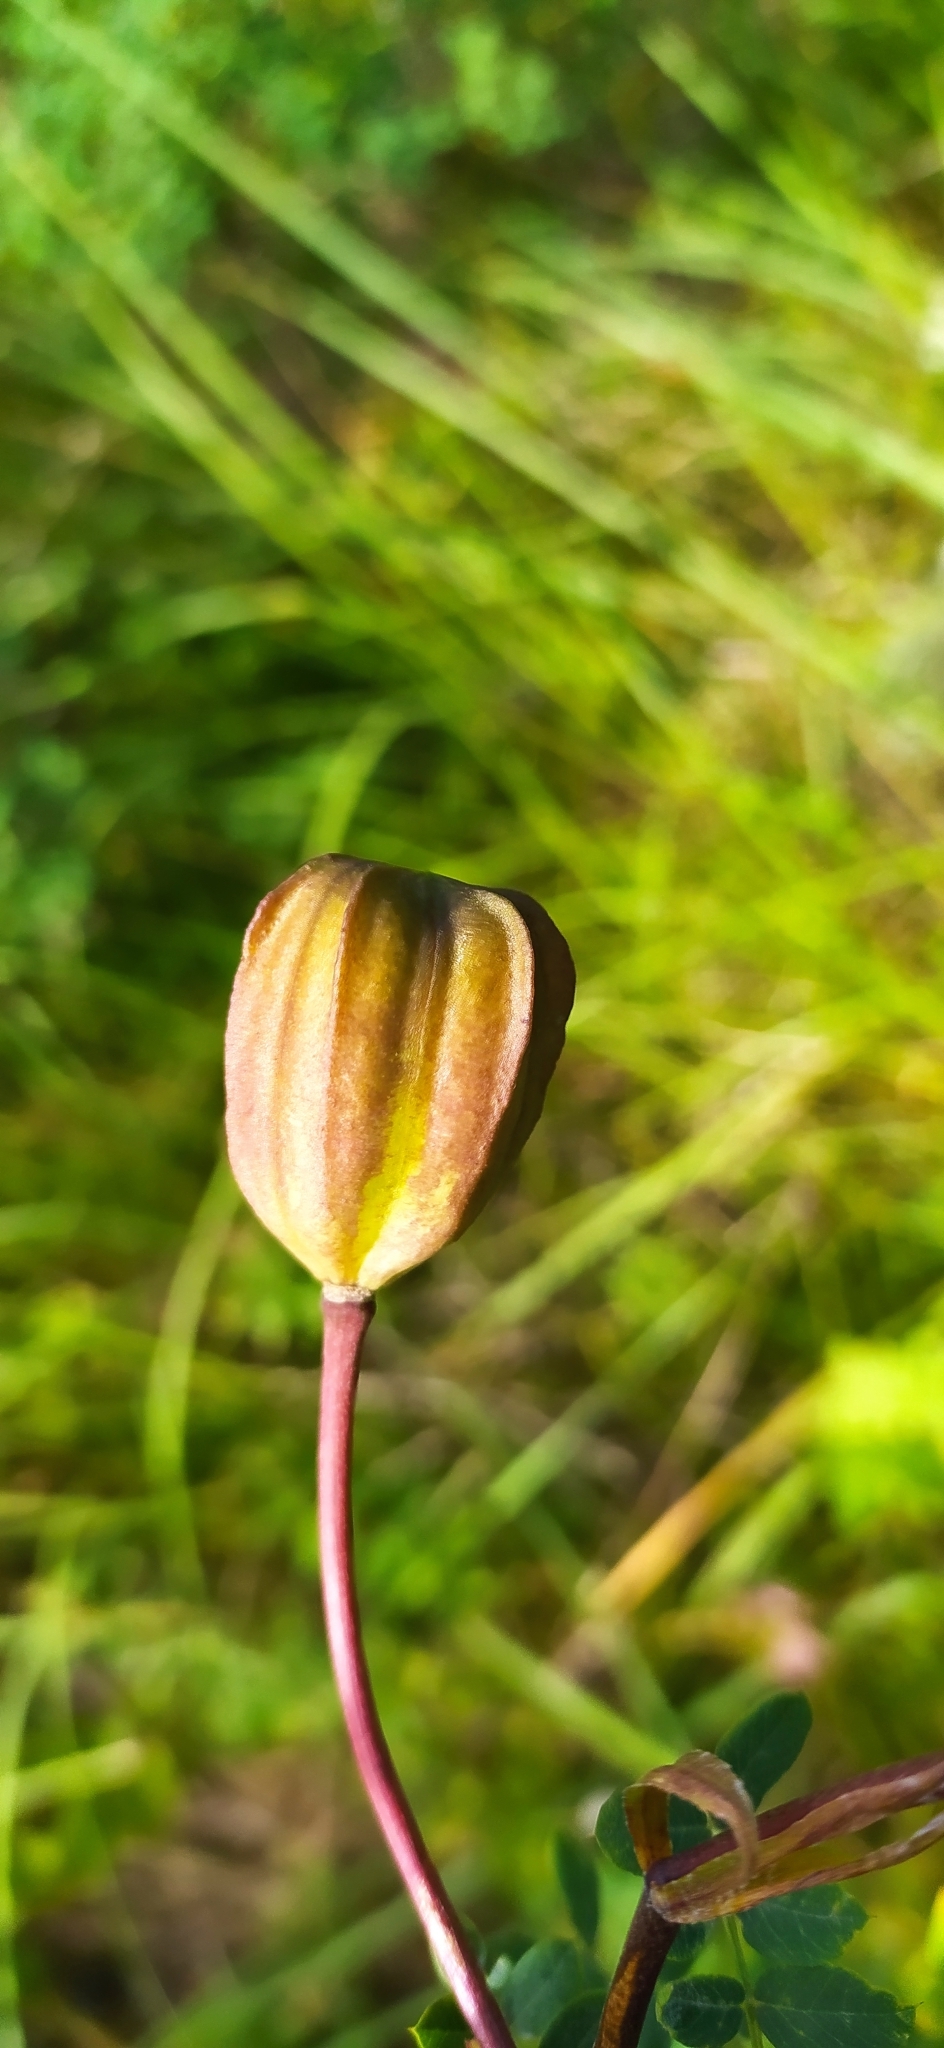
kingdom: Plantae
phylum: Tracheophyta
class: Liliopsida
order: Liliales
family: Liliaceae
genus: Lilium
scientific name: Lilium martagon
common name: Martagon lily
